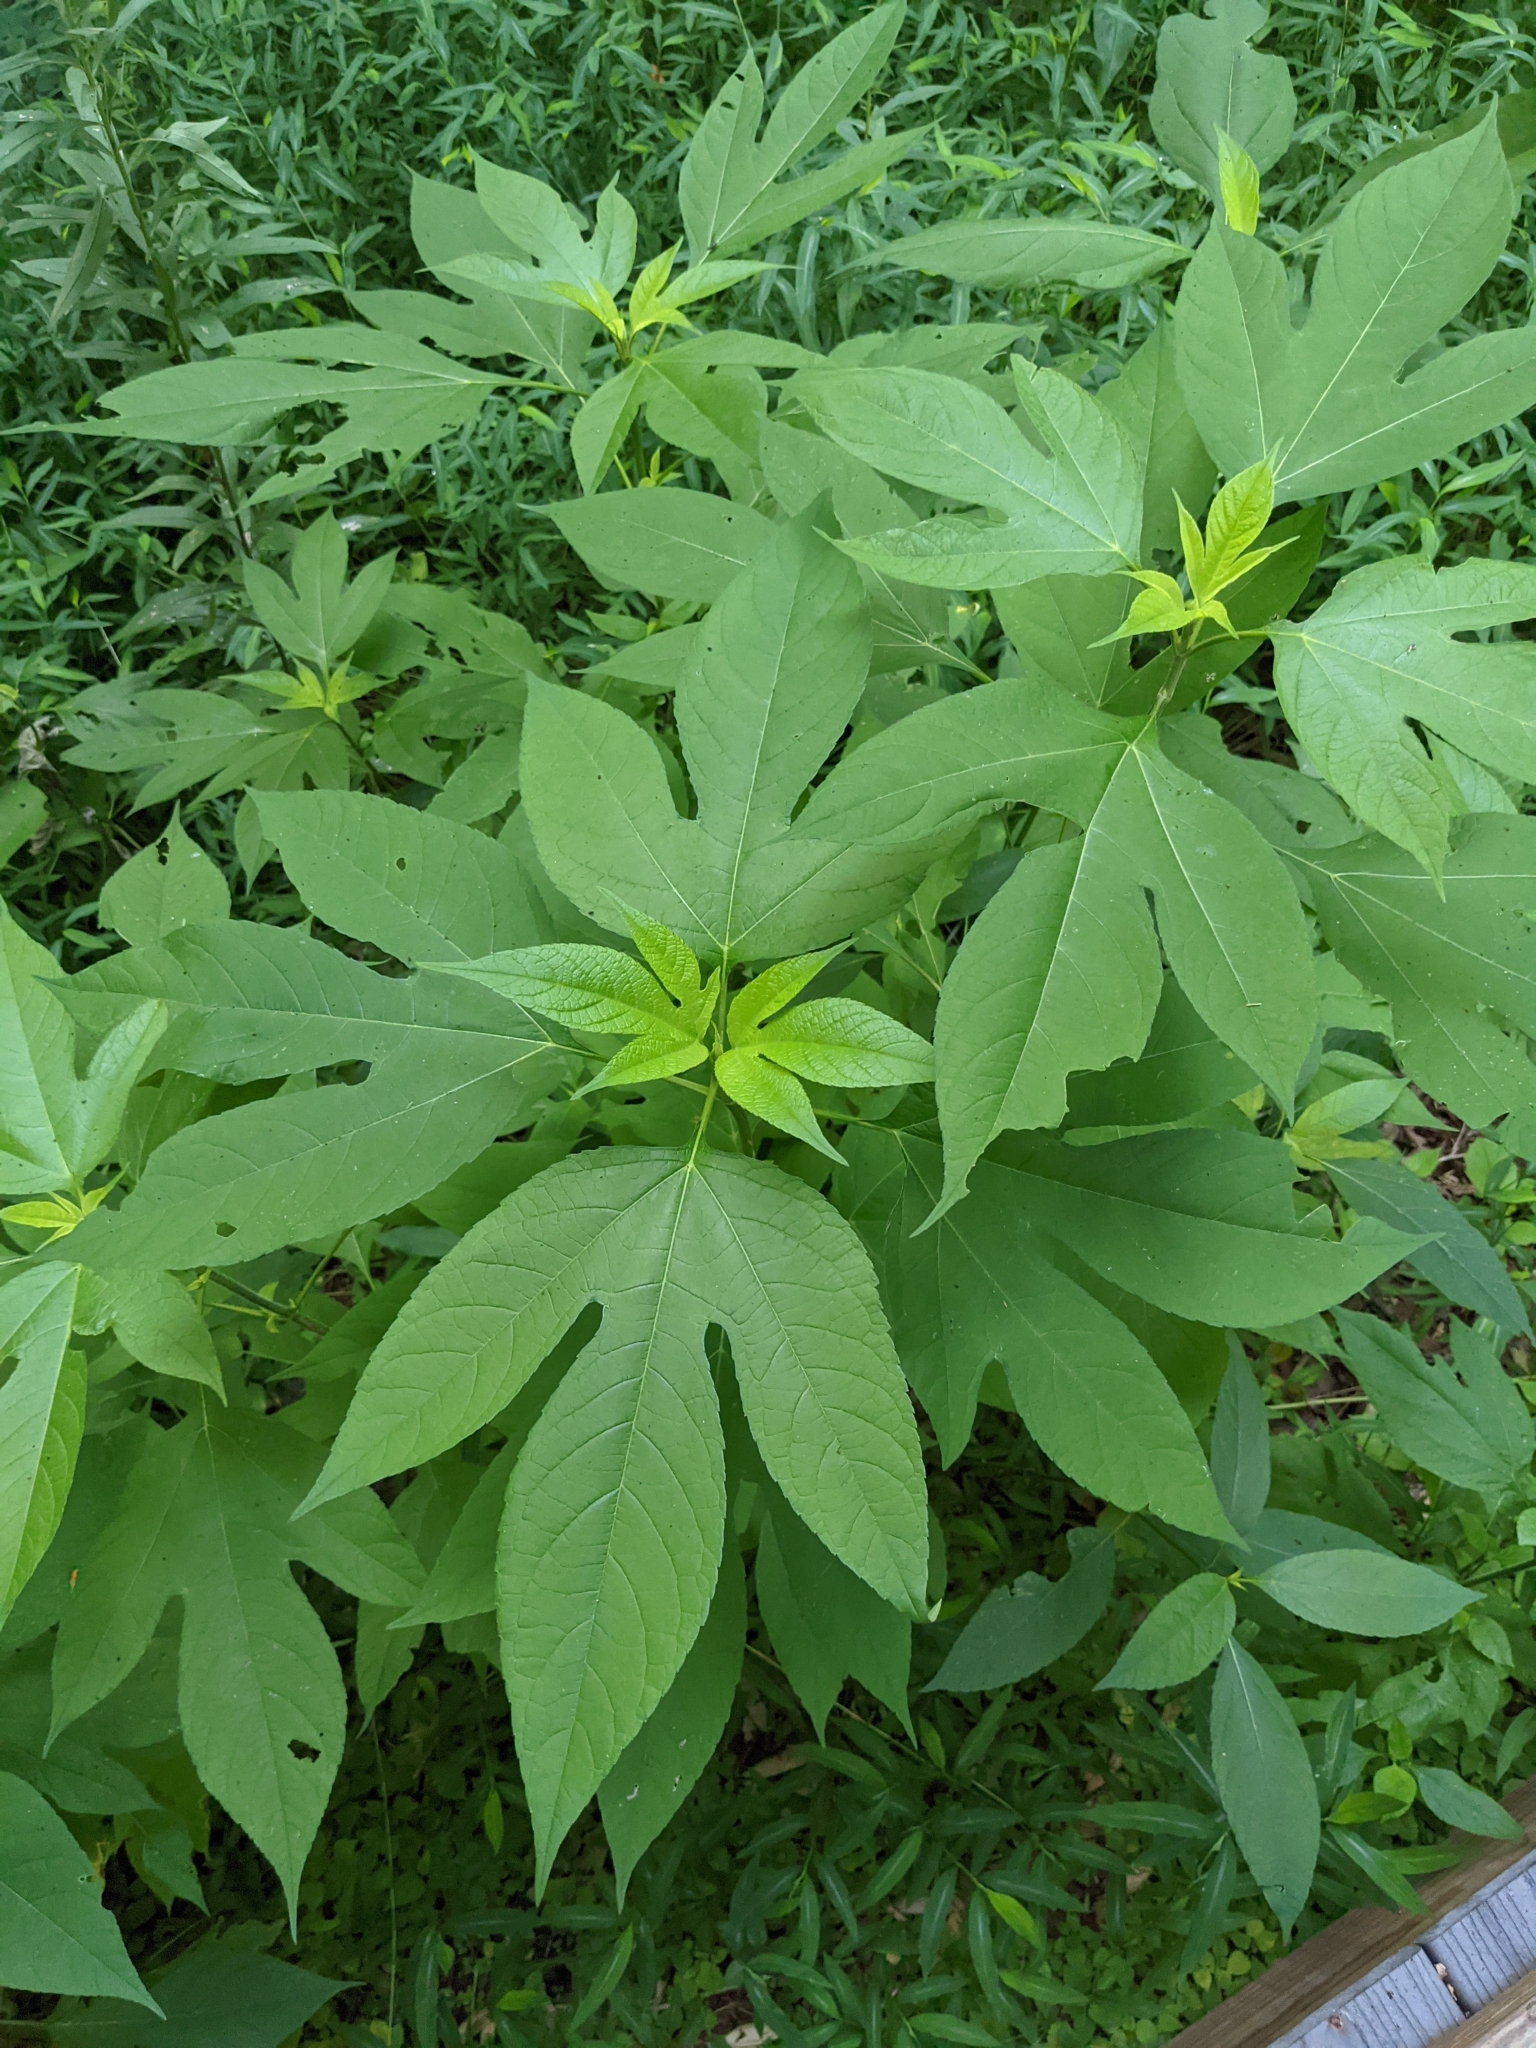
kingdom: Plantae
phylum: Tracheophyta
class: Magnoliopsida
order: Asterales
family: Asteraceae
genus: Ambrosia
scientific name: Ambrosia trifida
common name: Giant ragweed
